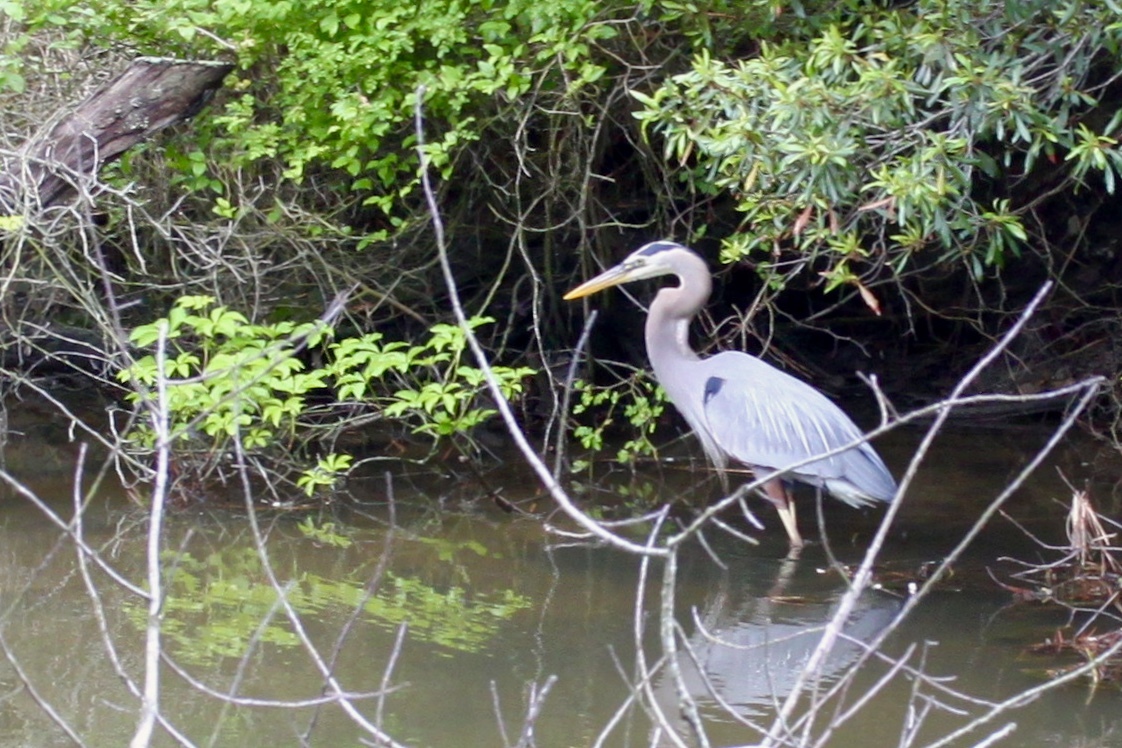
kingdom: Animalia
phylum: Chordata
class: Aves
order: Pelecaniformes
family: Ardeidae
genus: Ardea
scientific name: Ardea herodias
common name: Great blue heron
